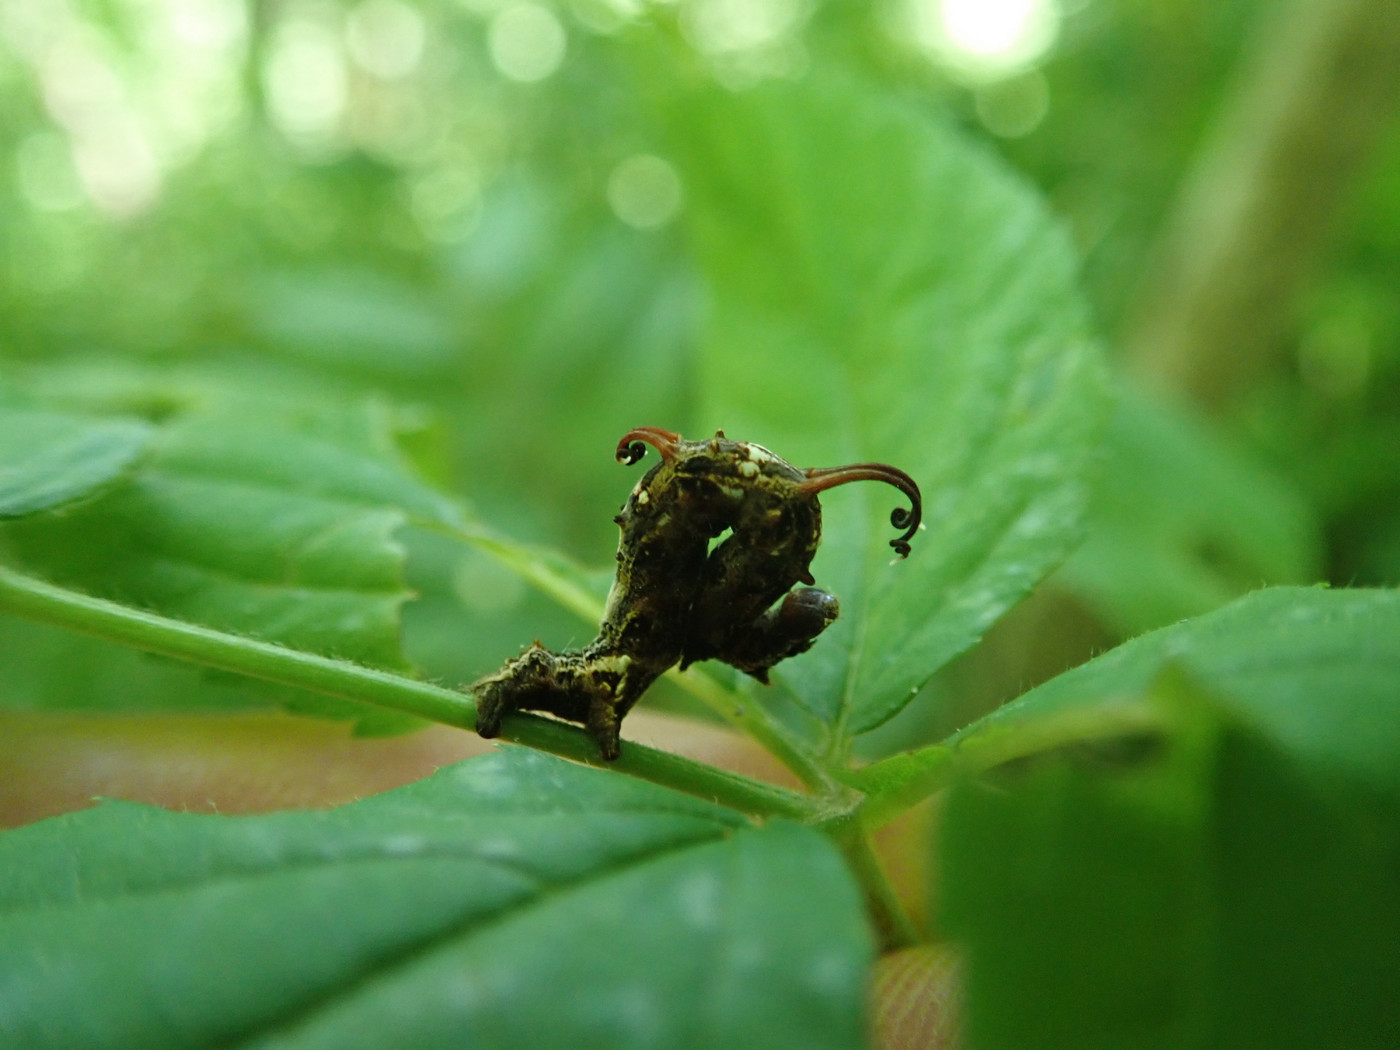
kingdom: Animalia
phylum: Arthropoda
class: Insecta
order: Lepidoptera
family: Geometridae
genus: Nematocampa
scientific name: Nematocampa resistaria
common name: Horned spanworm moth
